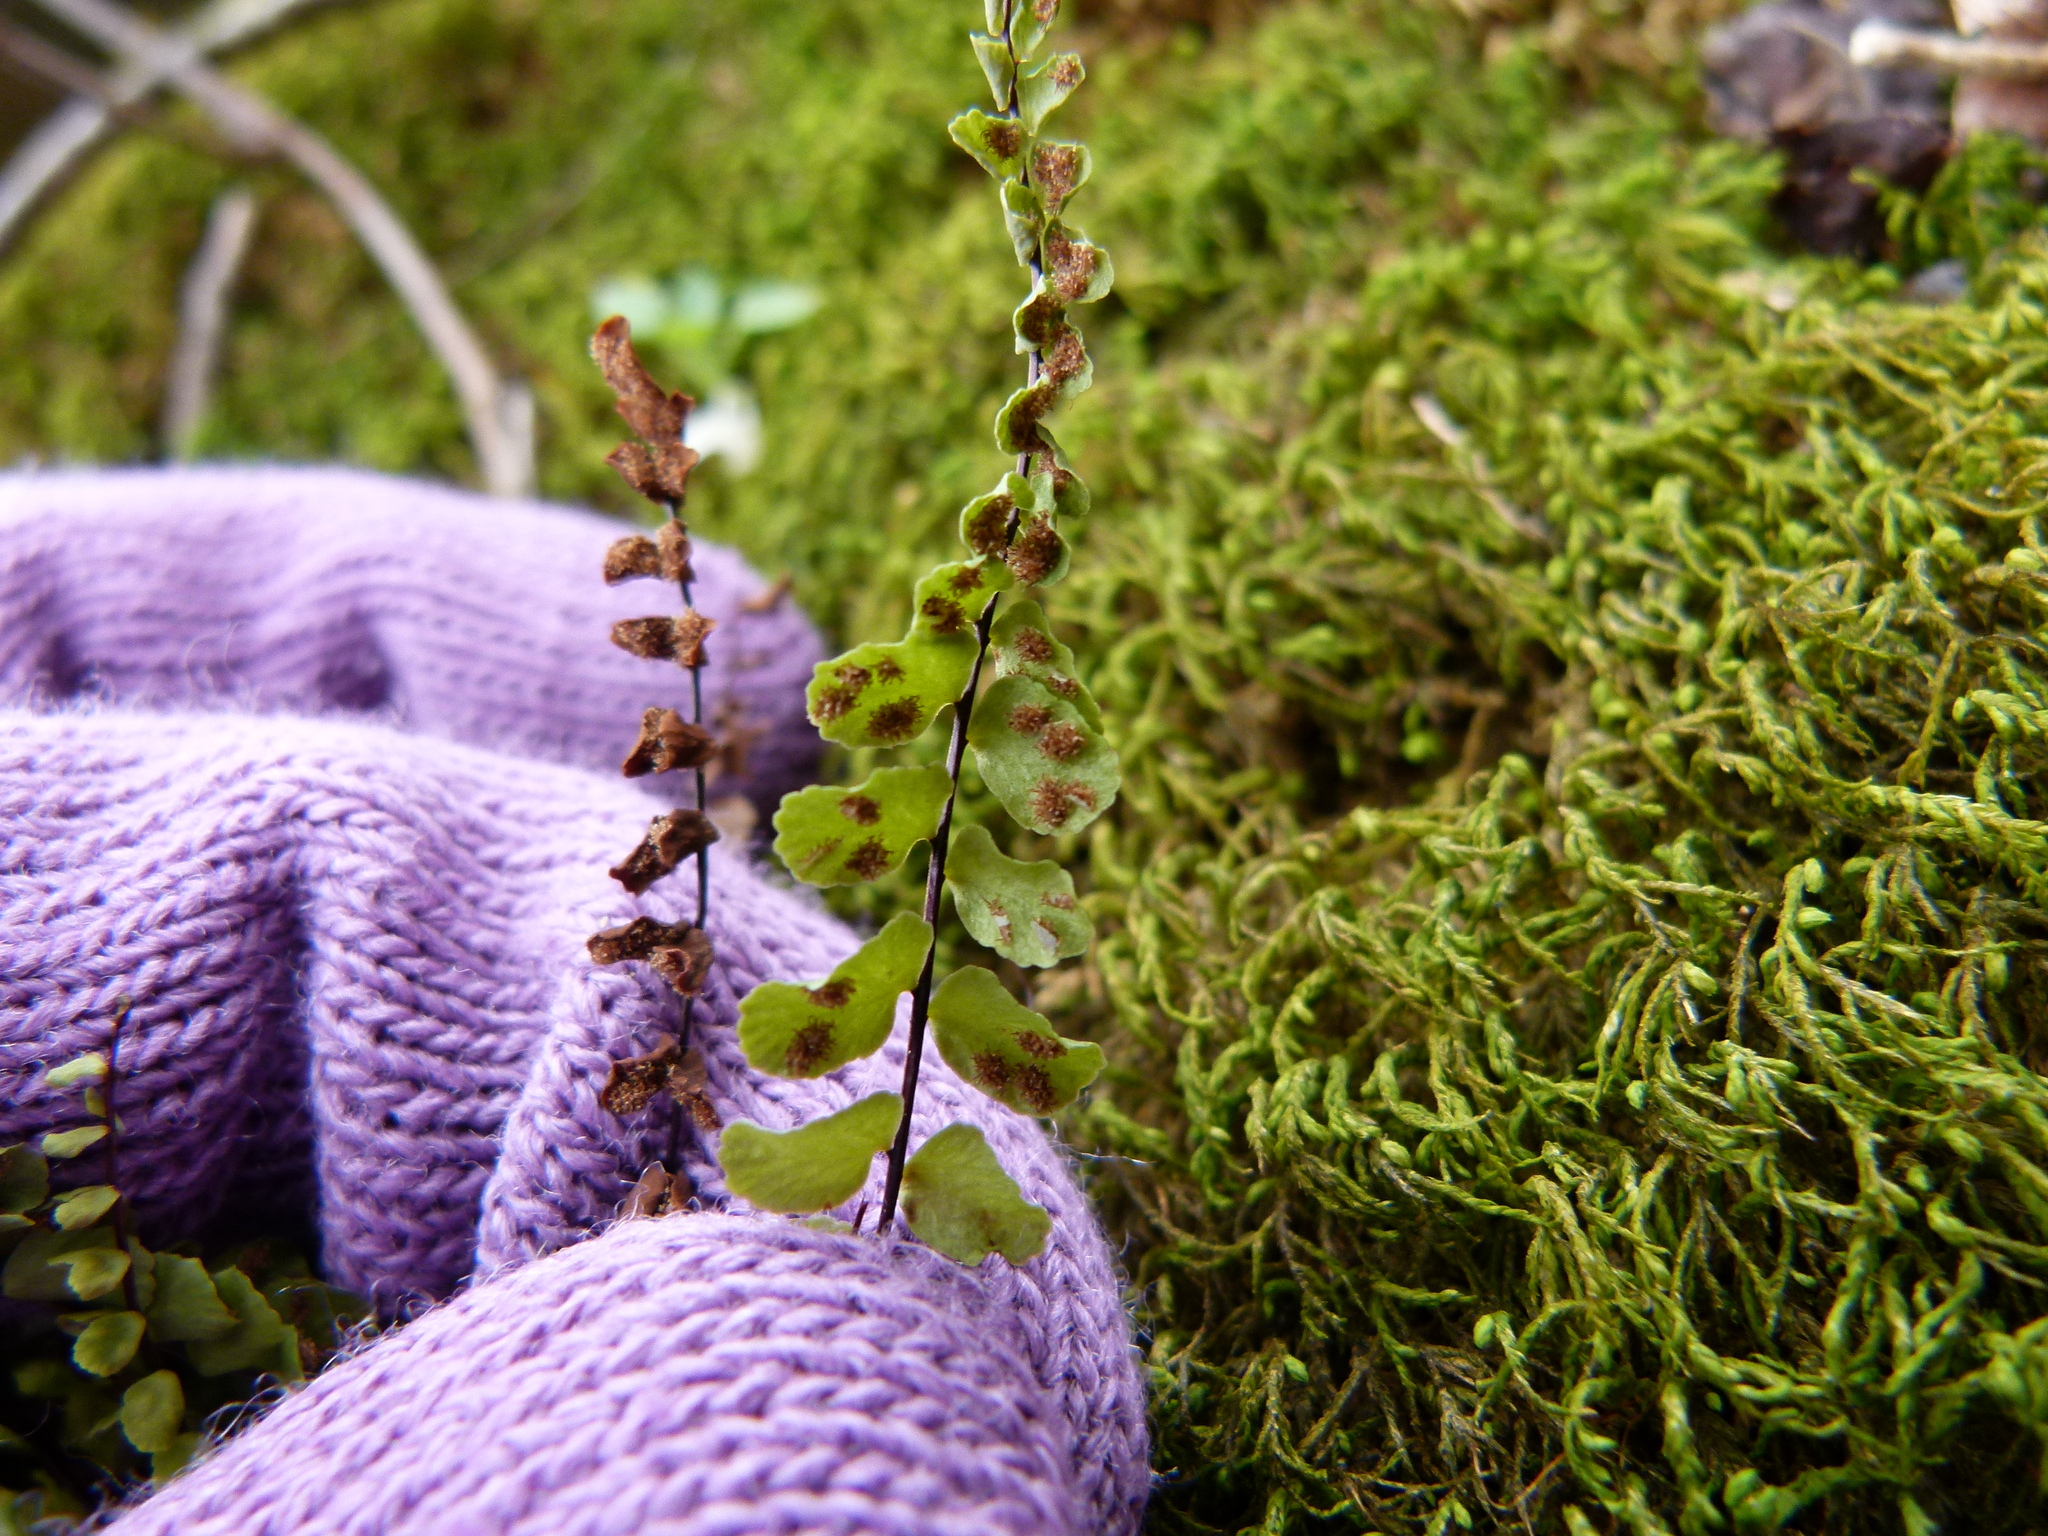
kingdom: Plantae
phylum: Tracheophyta
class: Polypodiopsida
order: Polypodiales
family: Aspleniaceae
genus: Asplenium
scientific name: Asplenium trichomanes
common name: Maidenhair spleenwort
